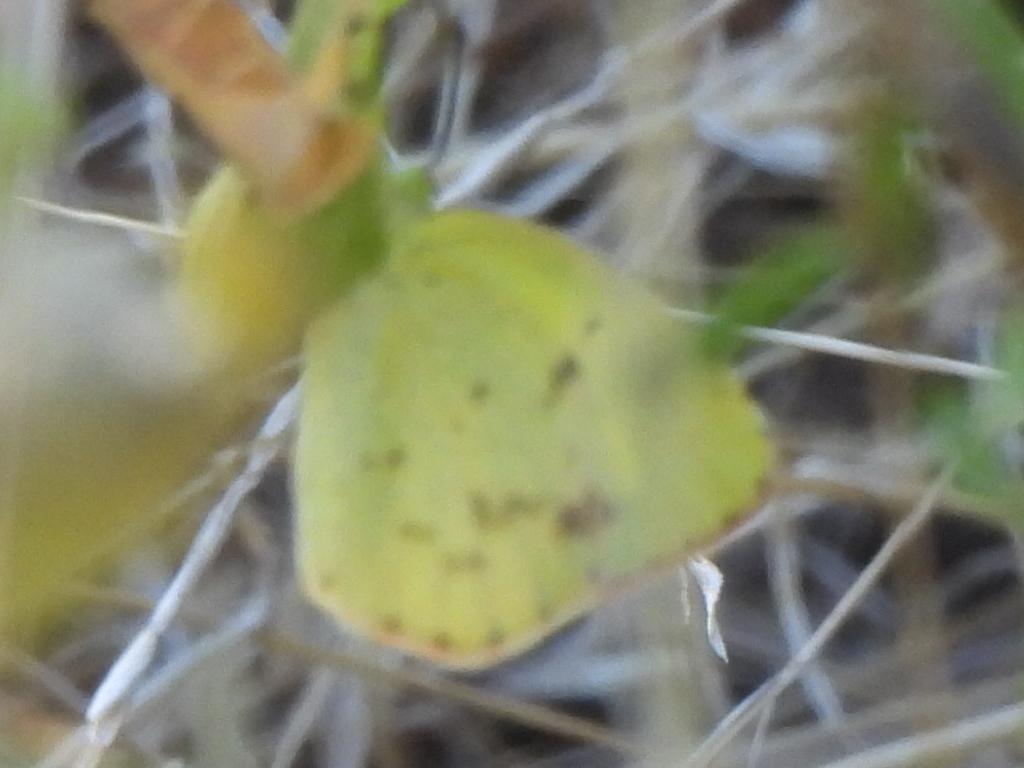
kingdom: Animalia
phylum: Arthropoda
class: Insecta
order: Lepidoptera
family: Pieridae
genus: Pyrisitia
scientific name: Pyrisitia lisa
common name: Little yellow
